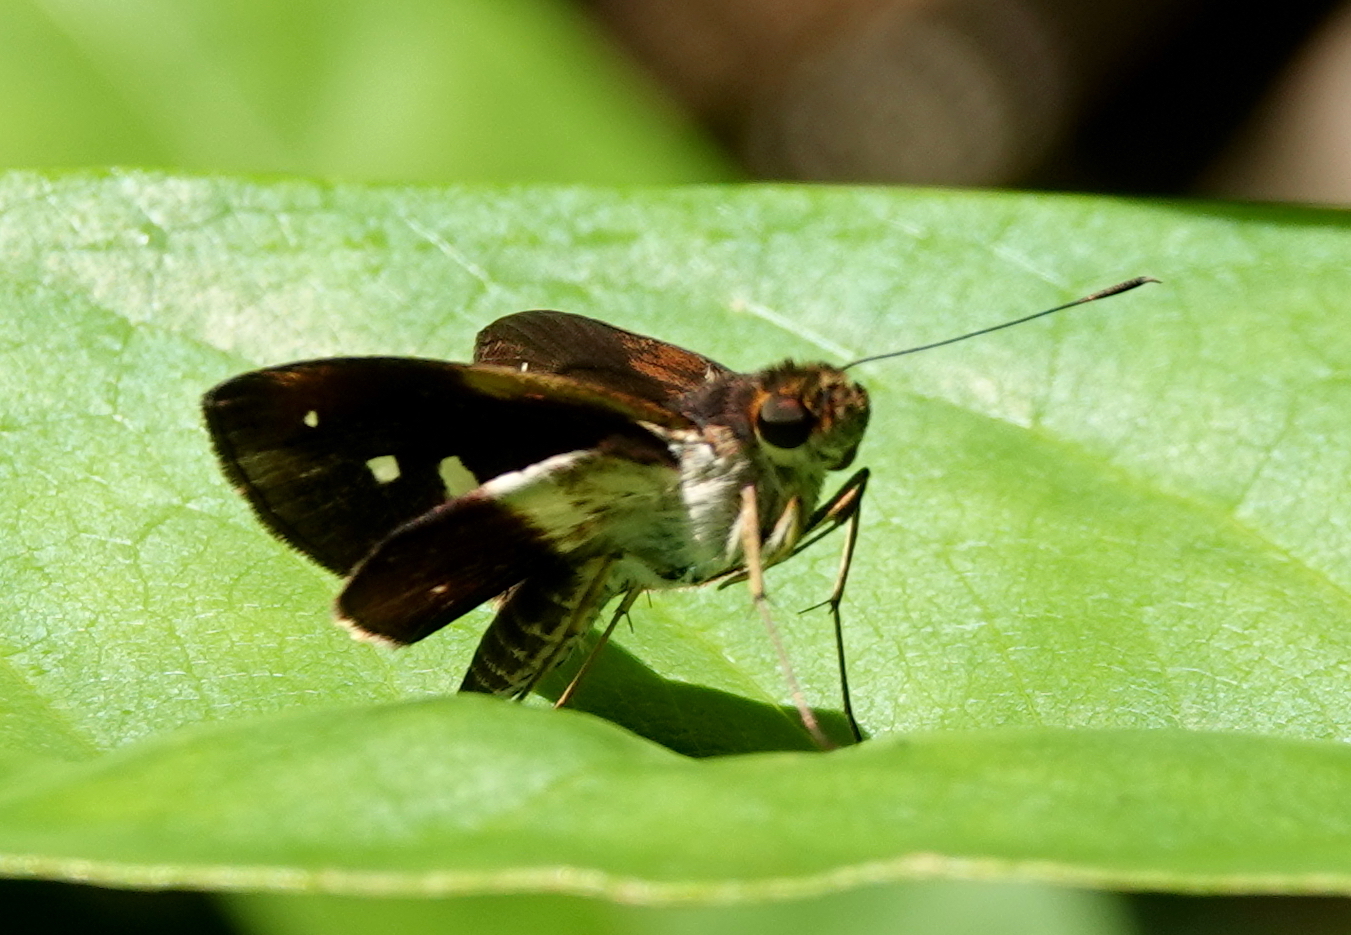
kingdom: Animalia
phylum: Arthropoda
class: Insecta
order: Lepidoptera
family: Hesperiidae
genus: Justinia
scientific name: Justinia norda
